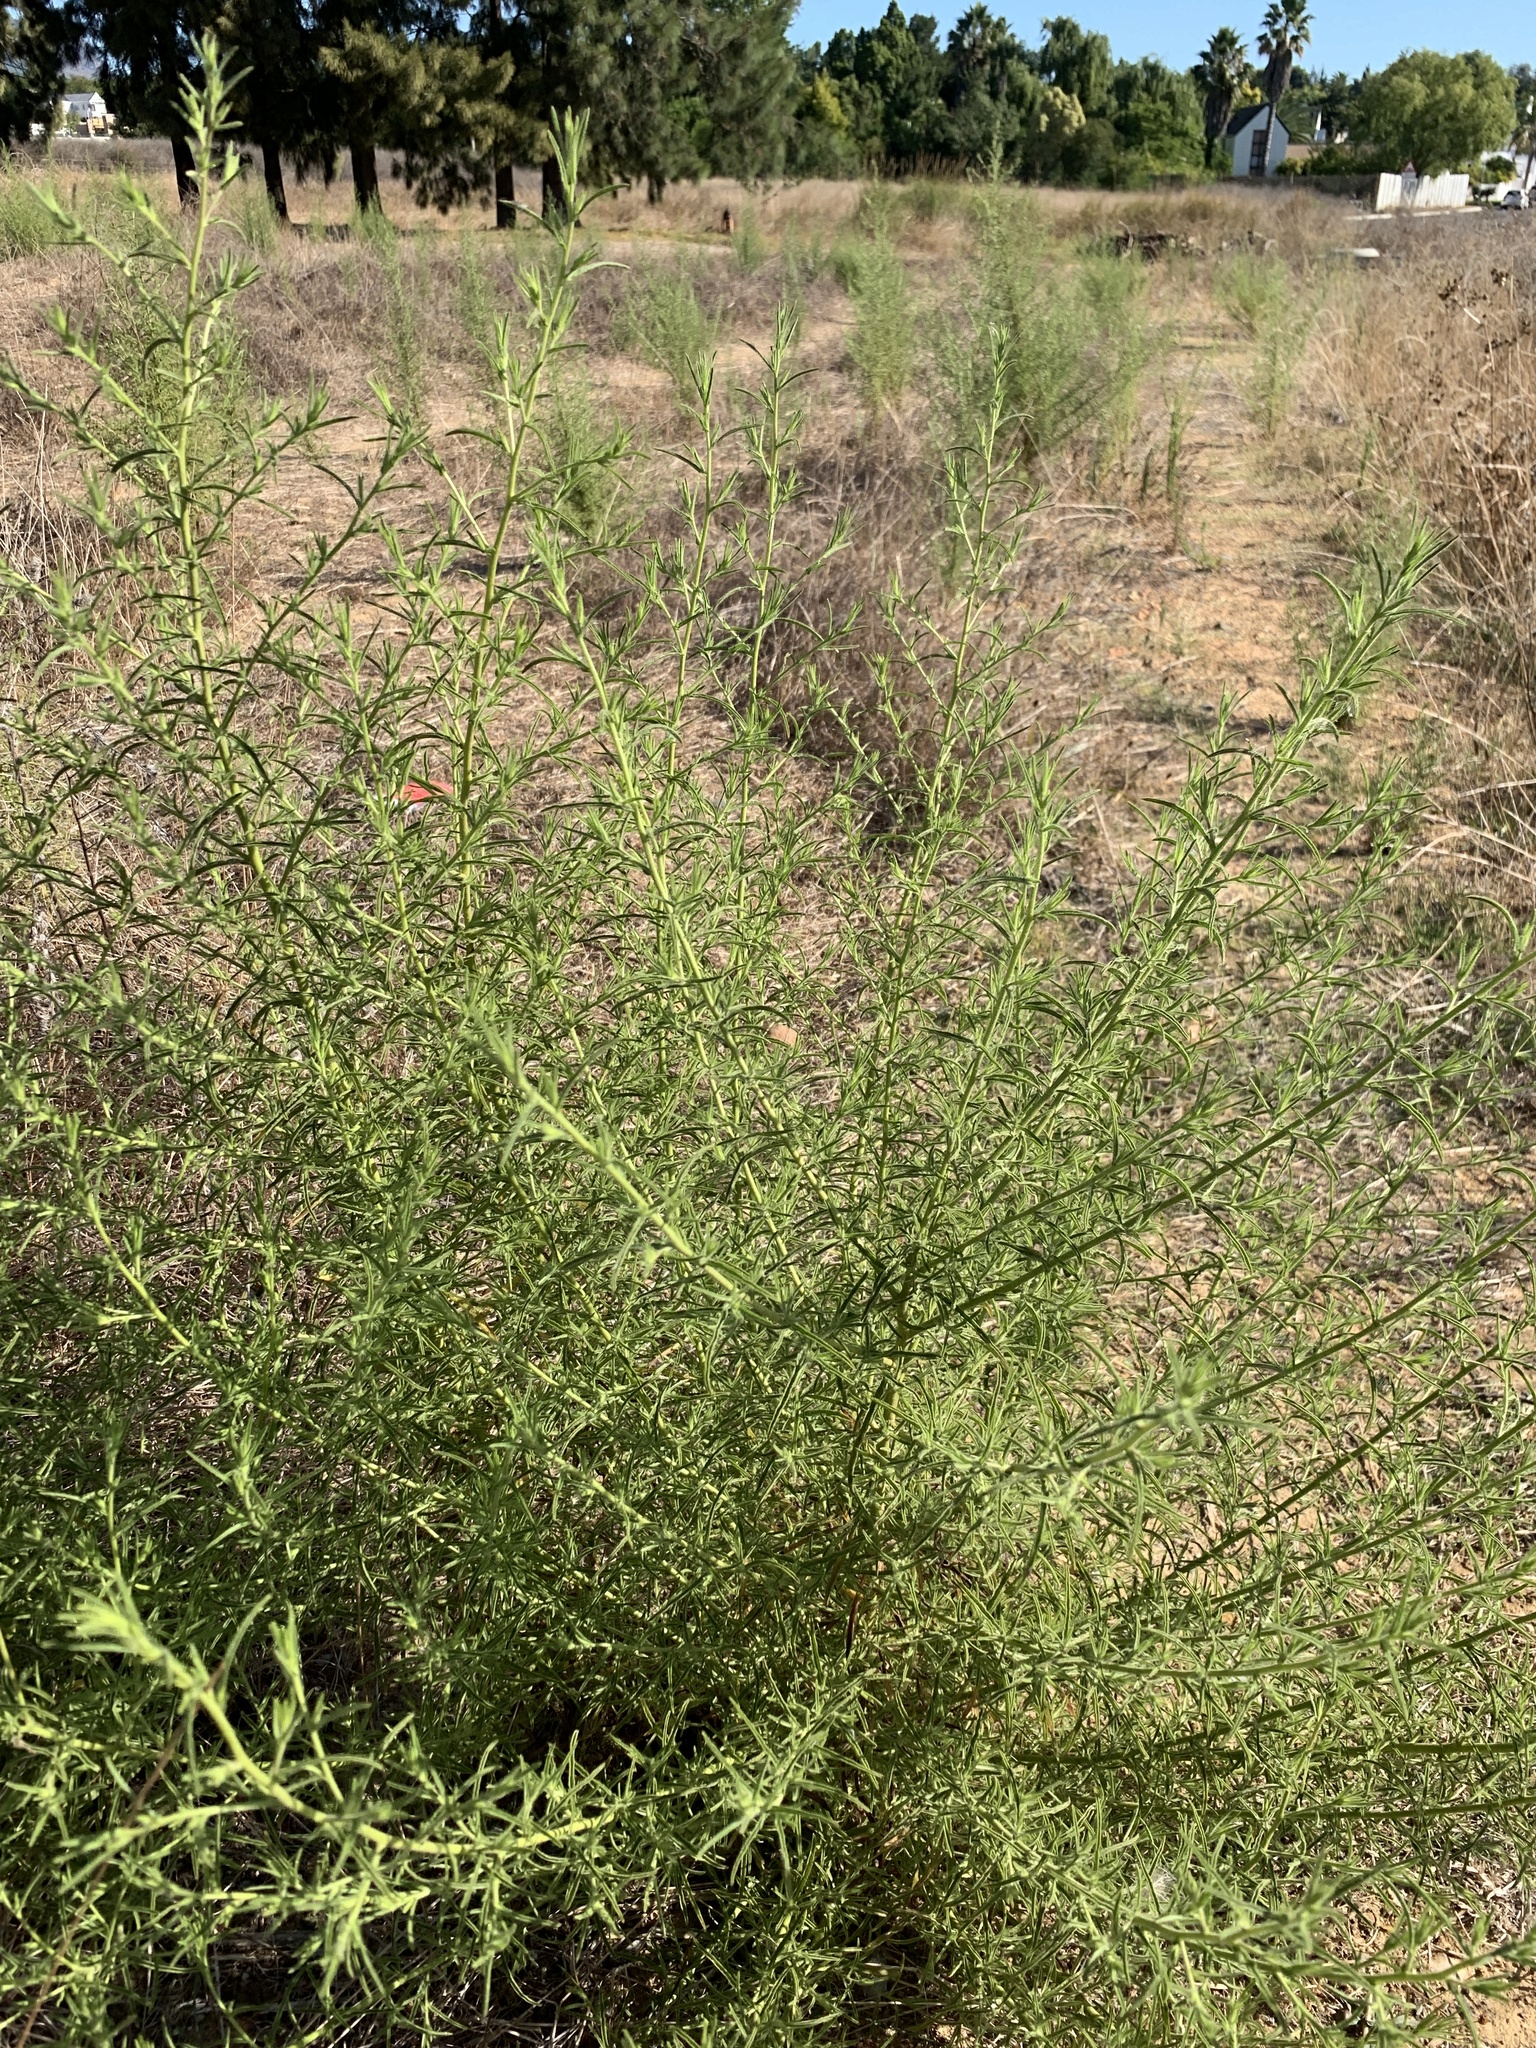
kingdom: Plantae
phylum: Tracheophyta
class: Magnoliopsida
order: Asterales
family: Asteraceae
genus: Dittrichia
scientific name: Dittrichia graveolens
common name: Stinking fleabane
